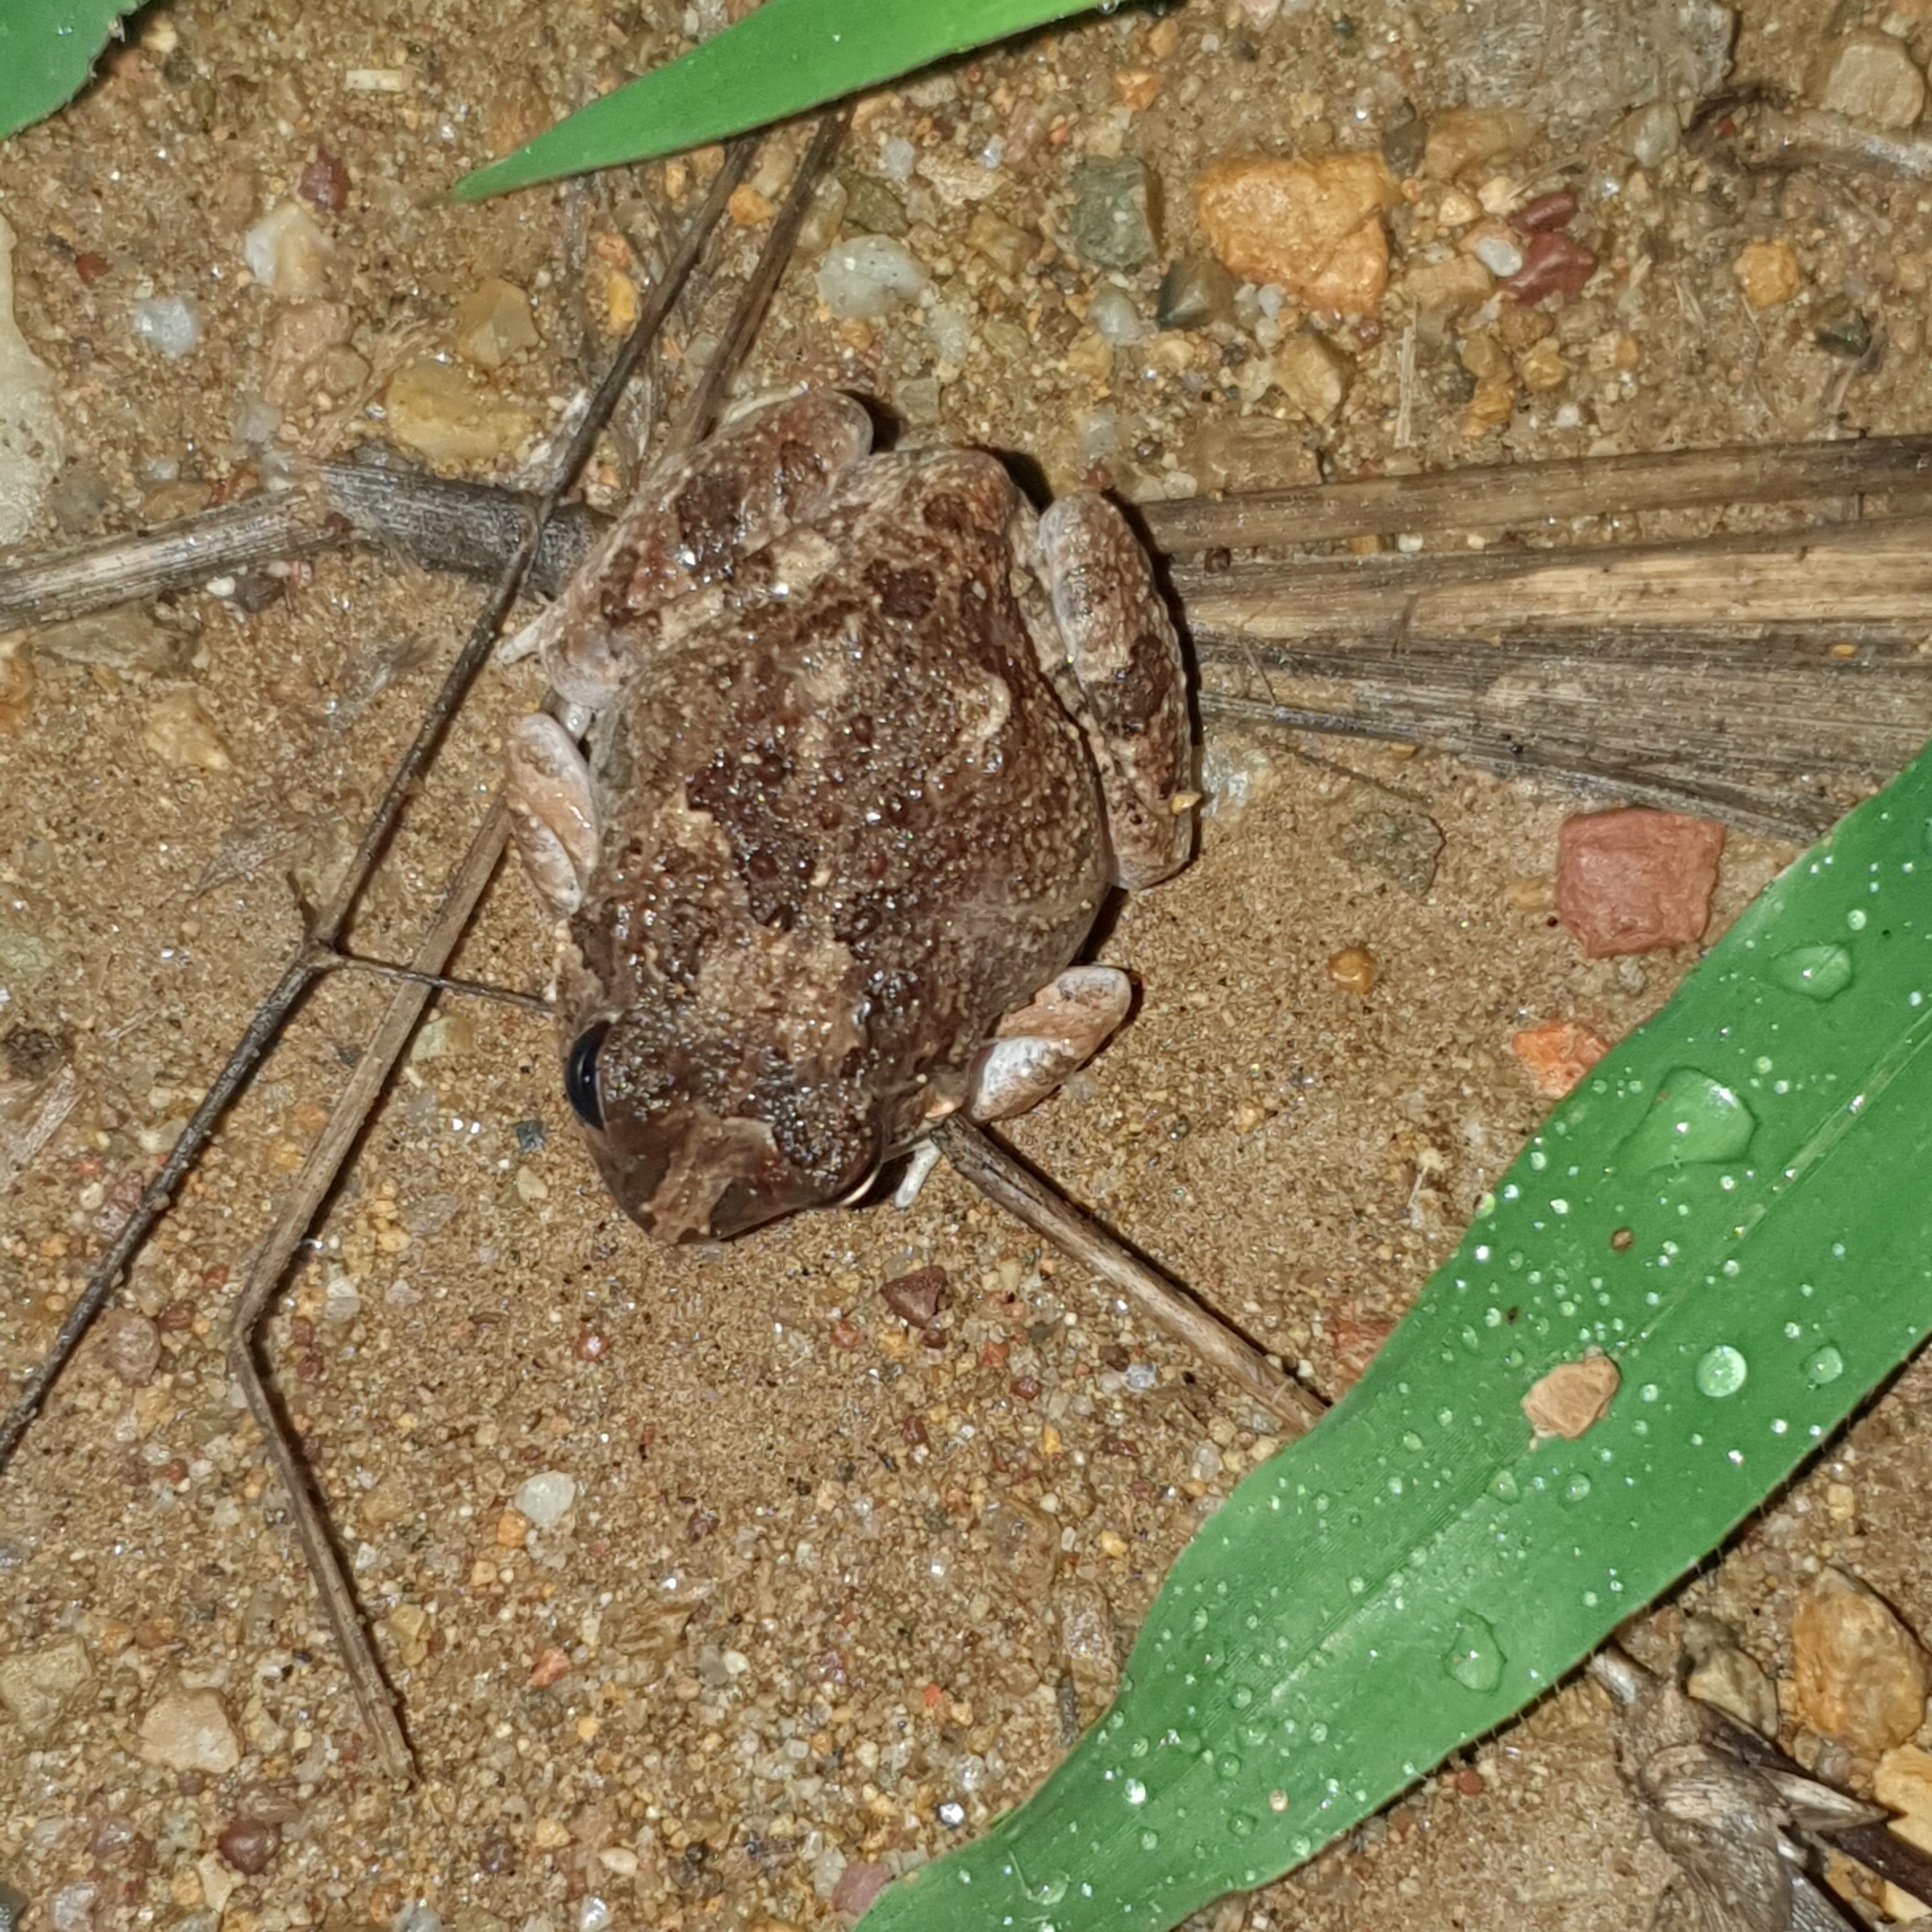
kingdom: Animalia
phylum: Chordata
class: Amphibia
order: Anura
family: Limnodynastidae
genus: Platyplectrum
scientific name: Platyplectrum ornatum
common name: Ornate burrowing frog
